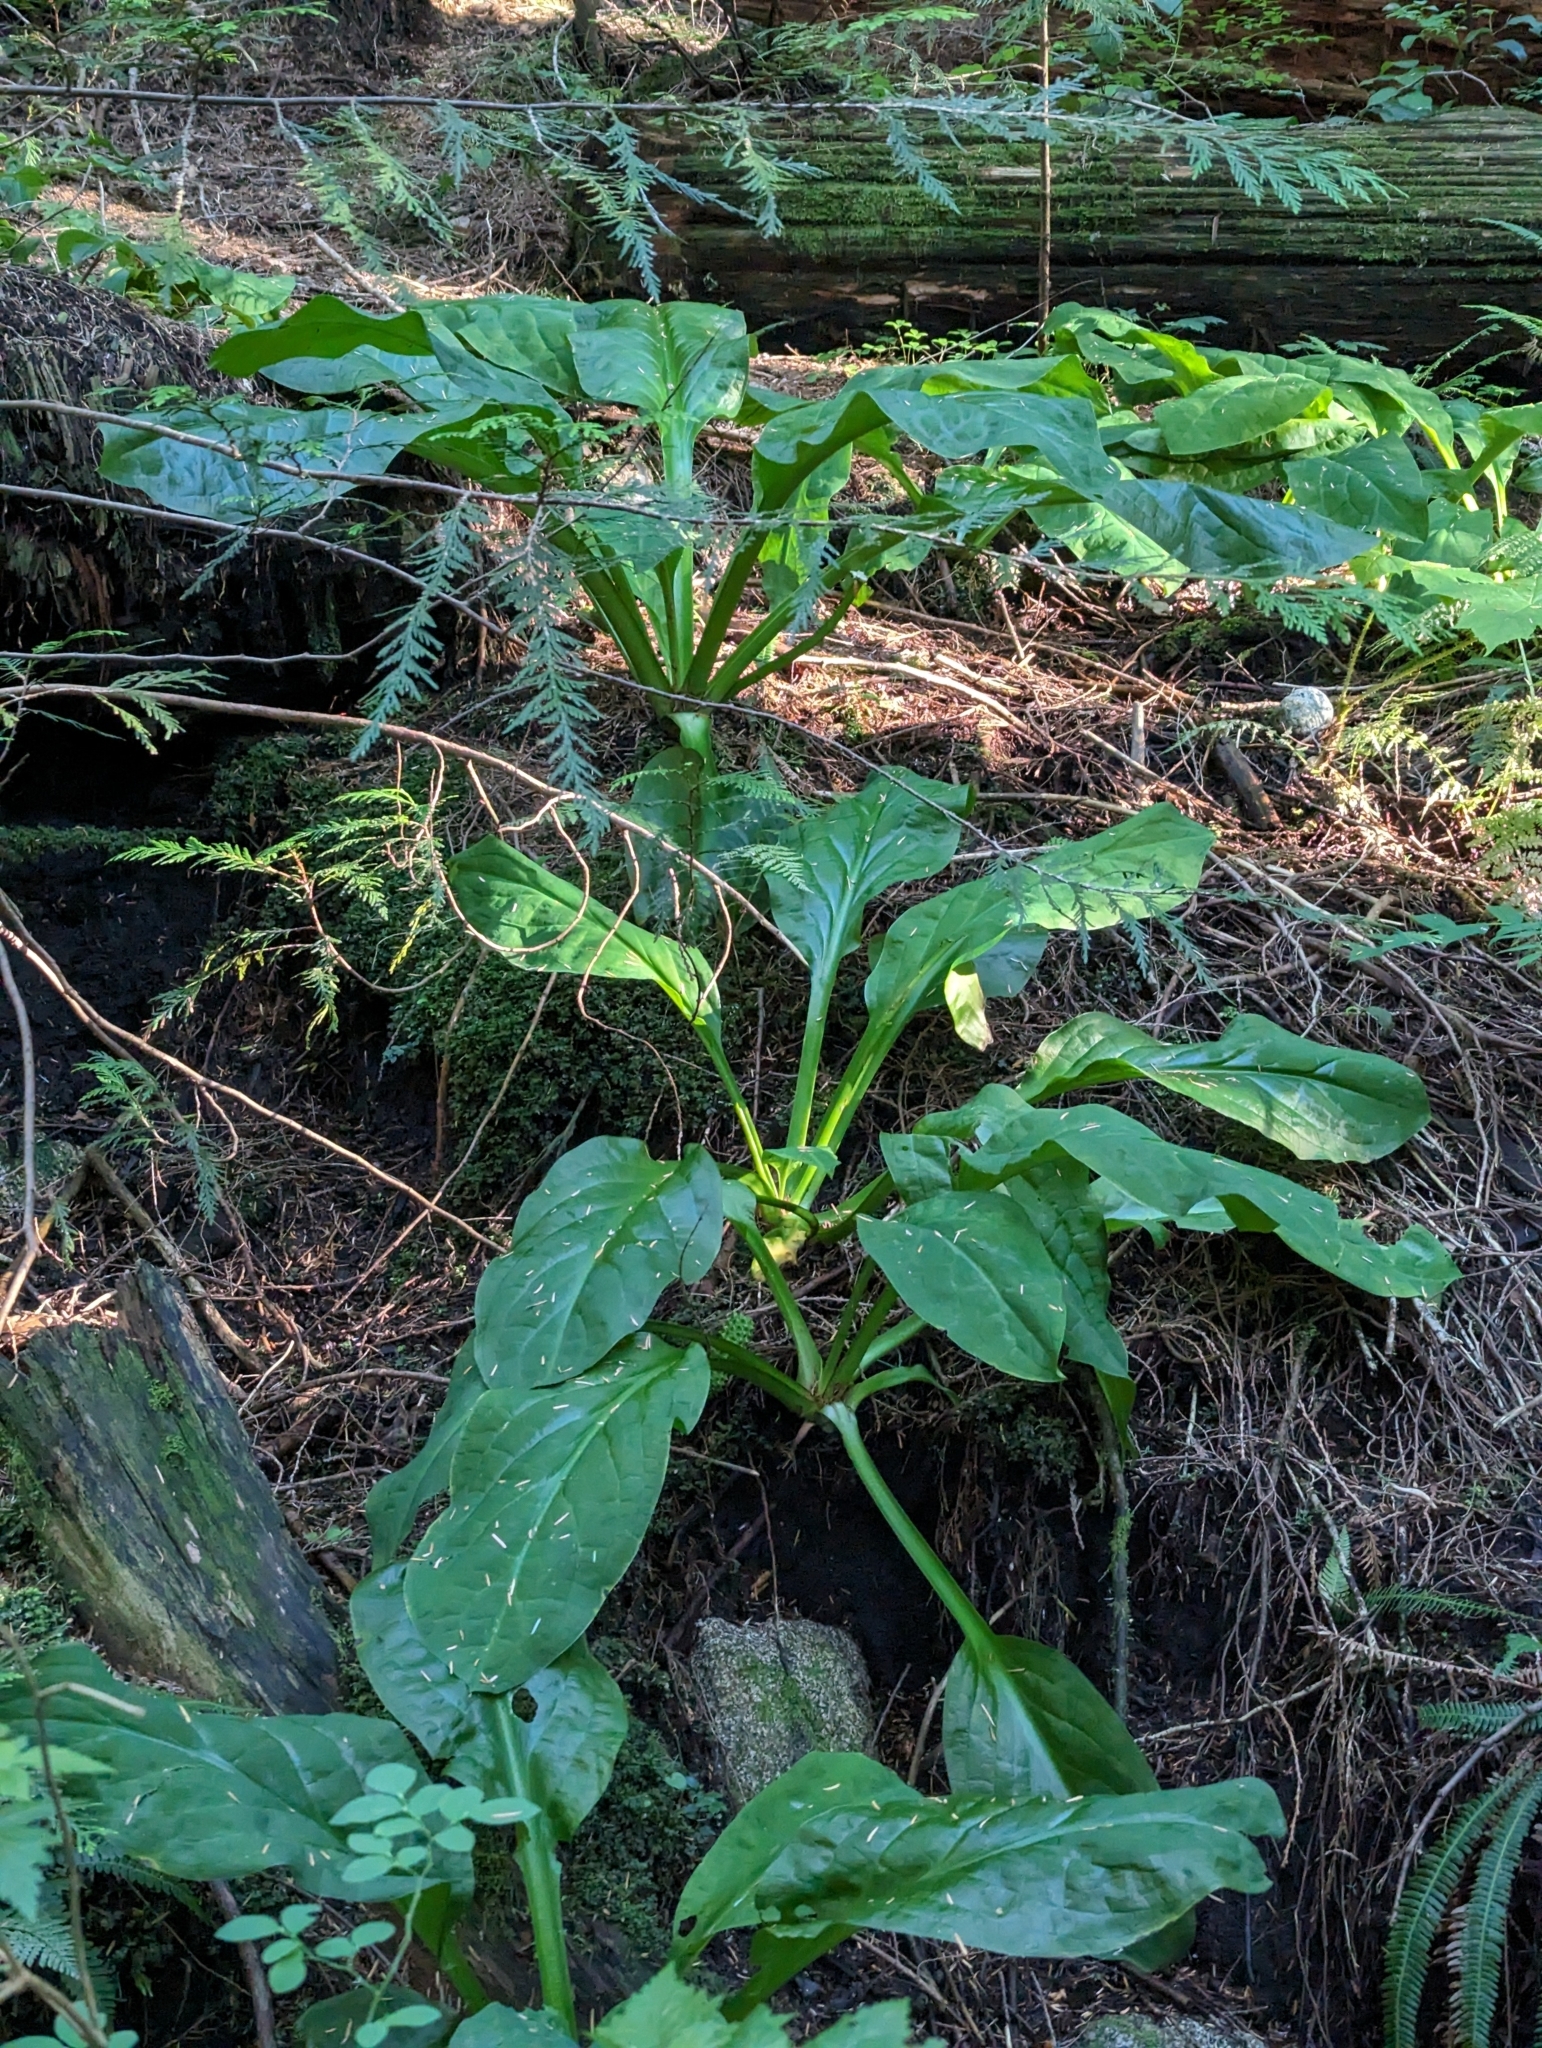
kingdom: Plantae
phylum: Tracheophyta
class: Liliopsida
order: Alismatales
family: Araceae
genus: Lysichiton
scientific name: Lysichiton americanus
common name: American skunk cabbage
